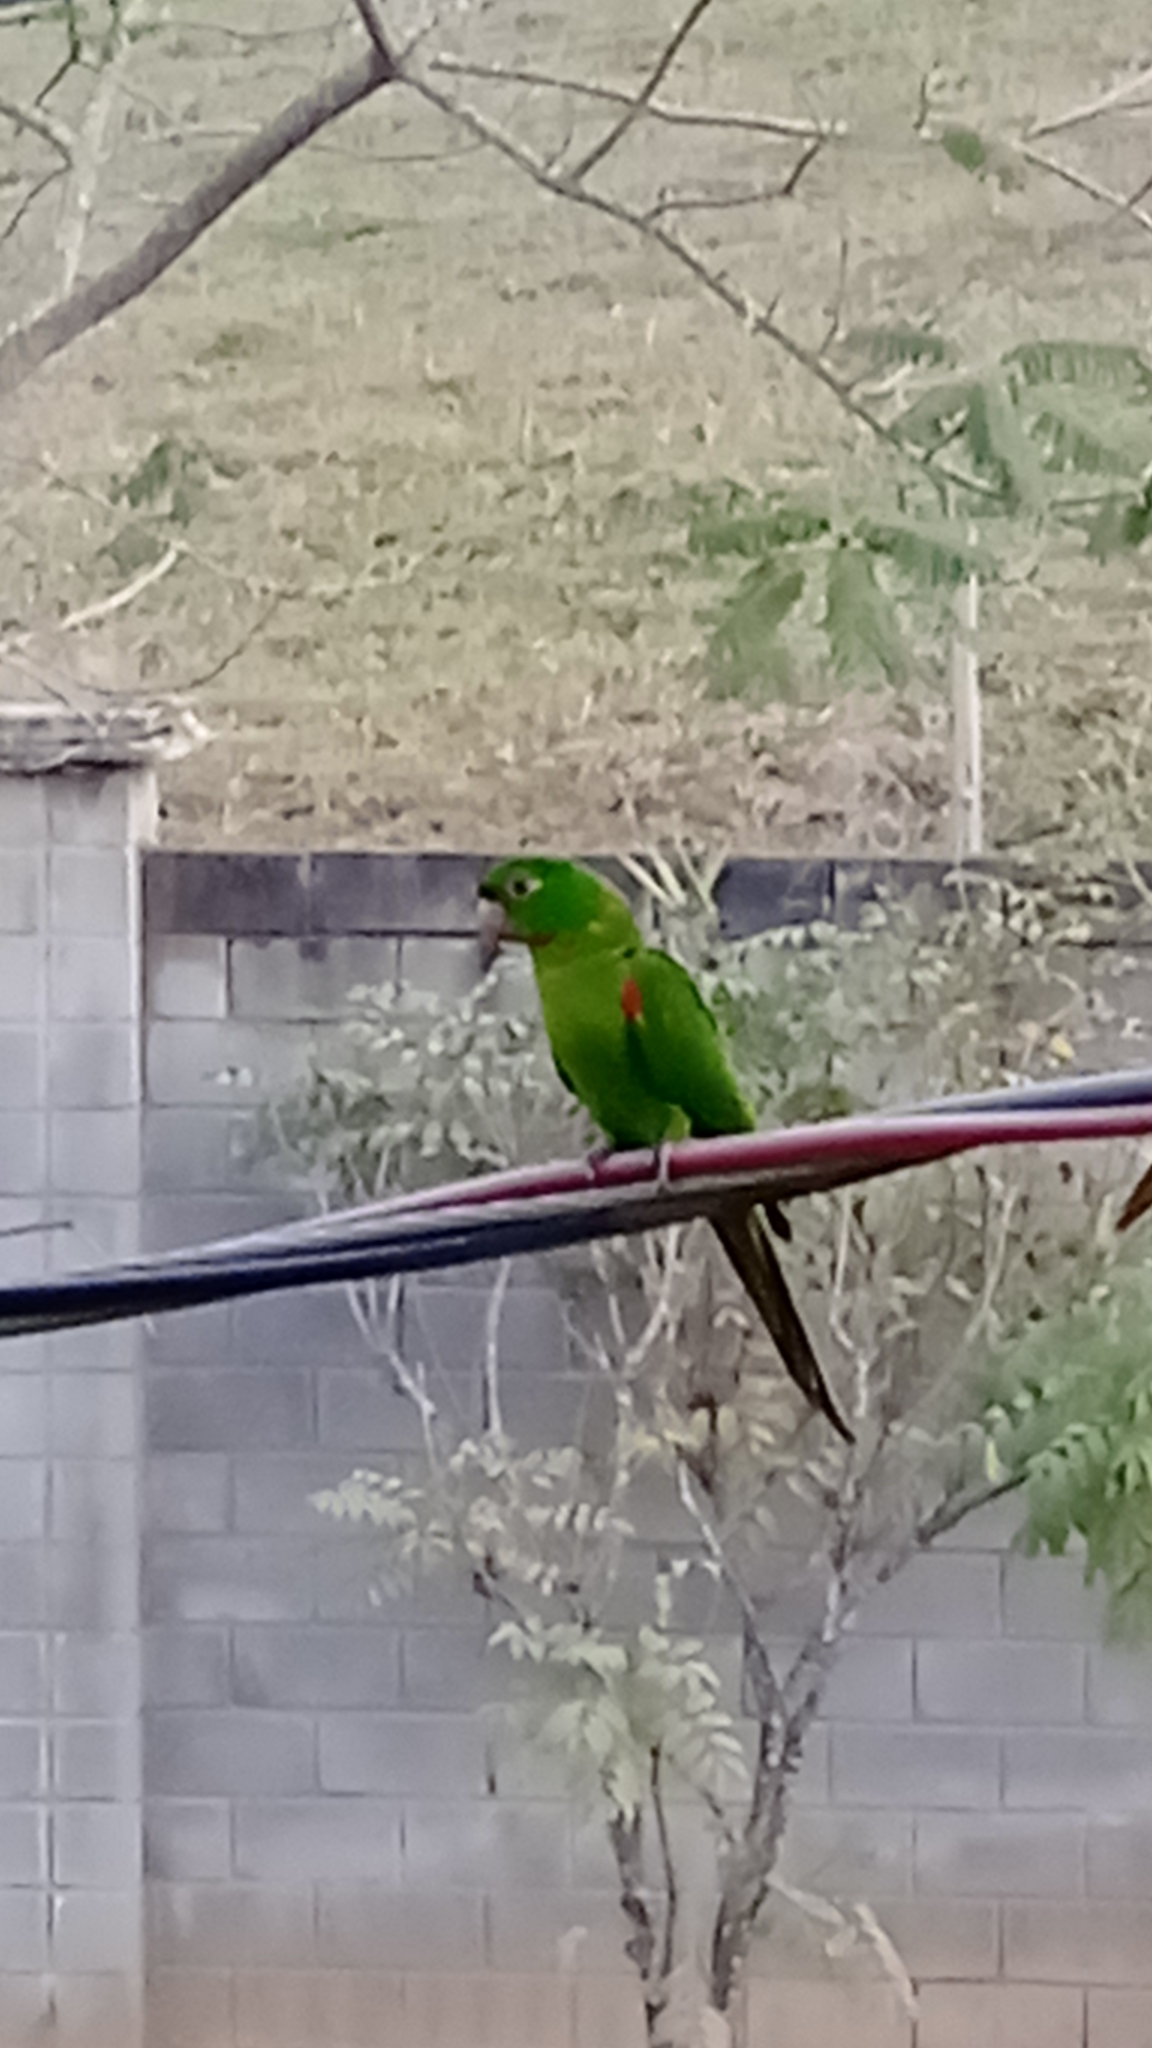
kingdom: Animalia
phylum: Chordata
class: Aves
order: Psittaciformes
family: Psittacidae
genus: Aratinga
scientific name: Aratinga leucophthalma
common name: White-eyed parakeet
